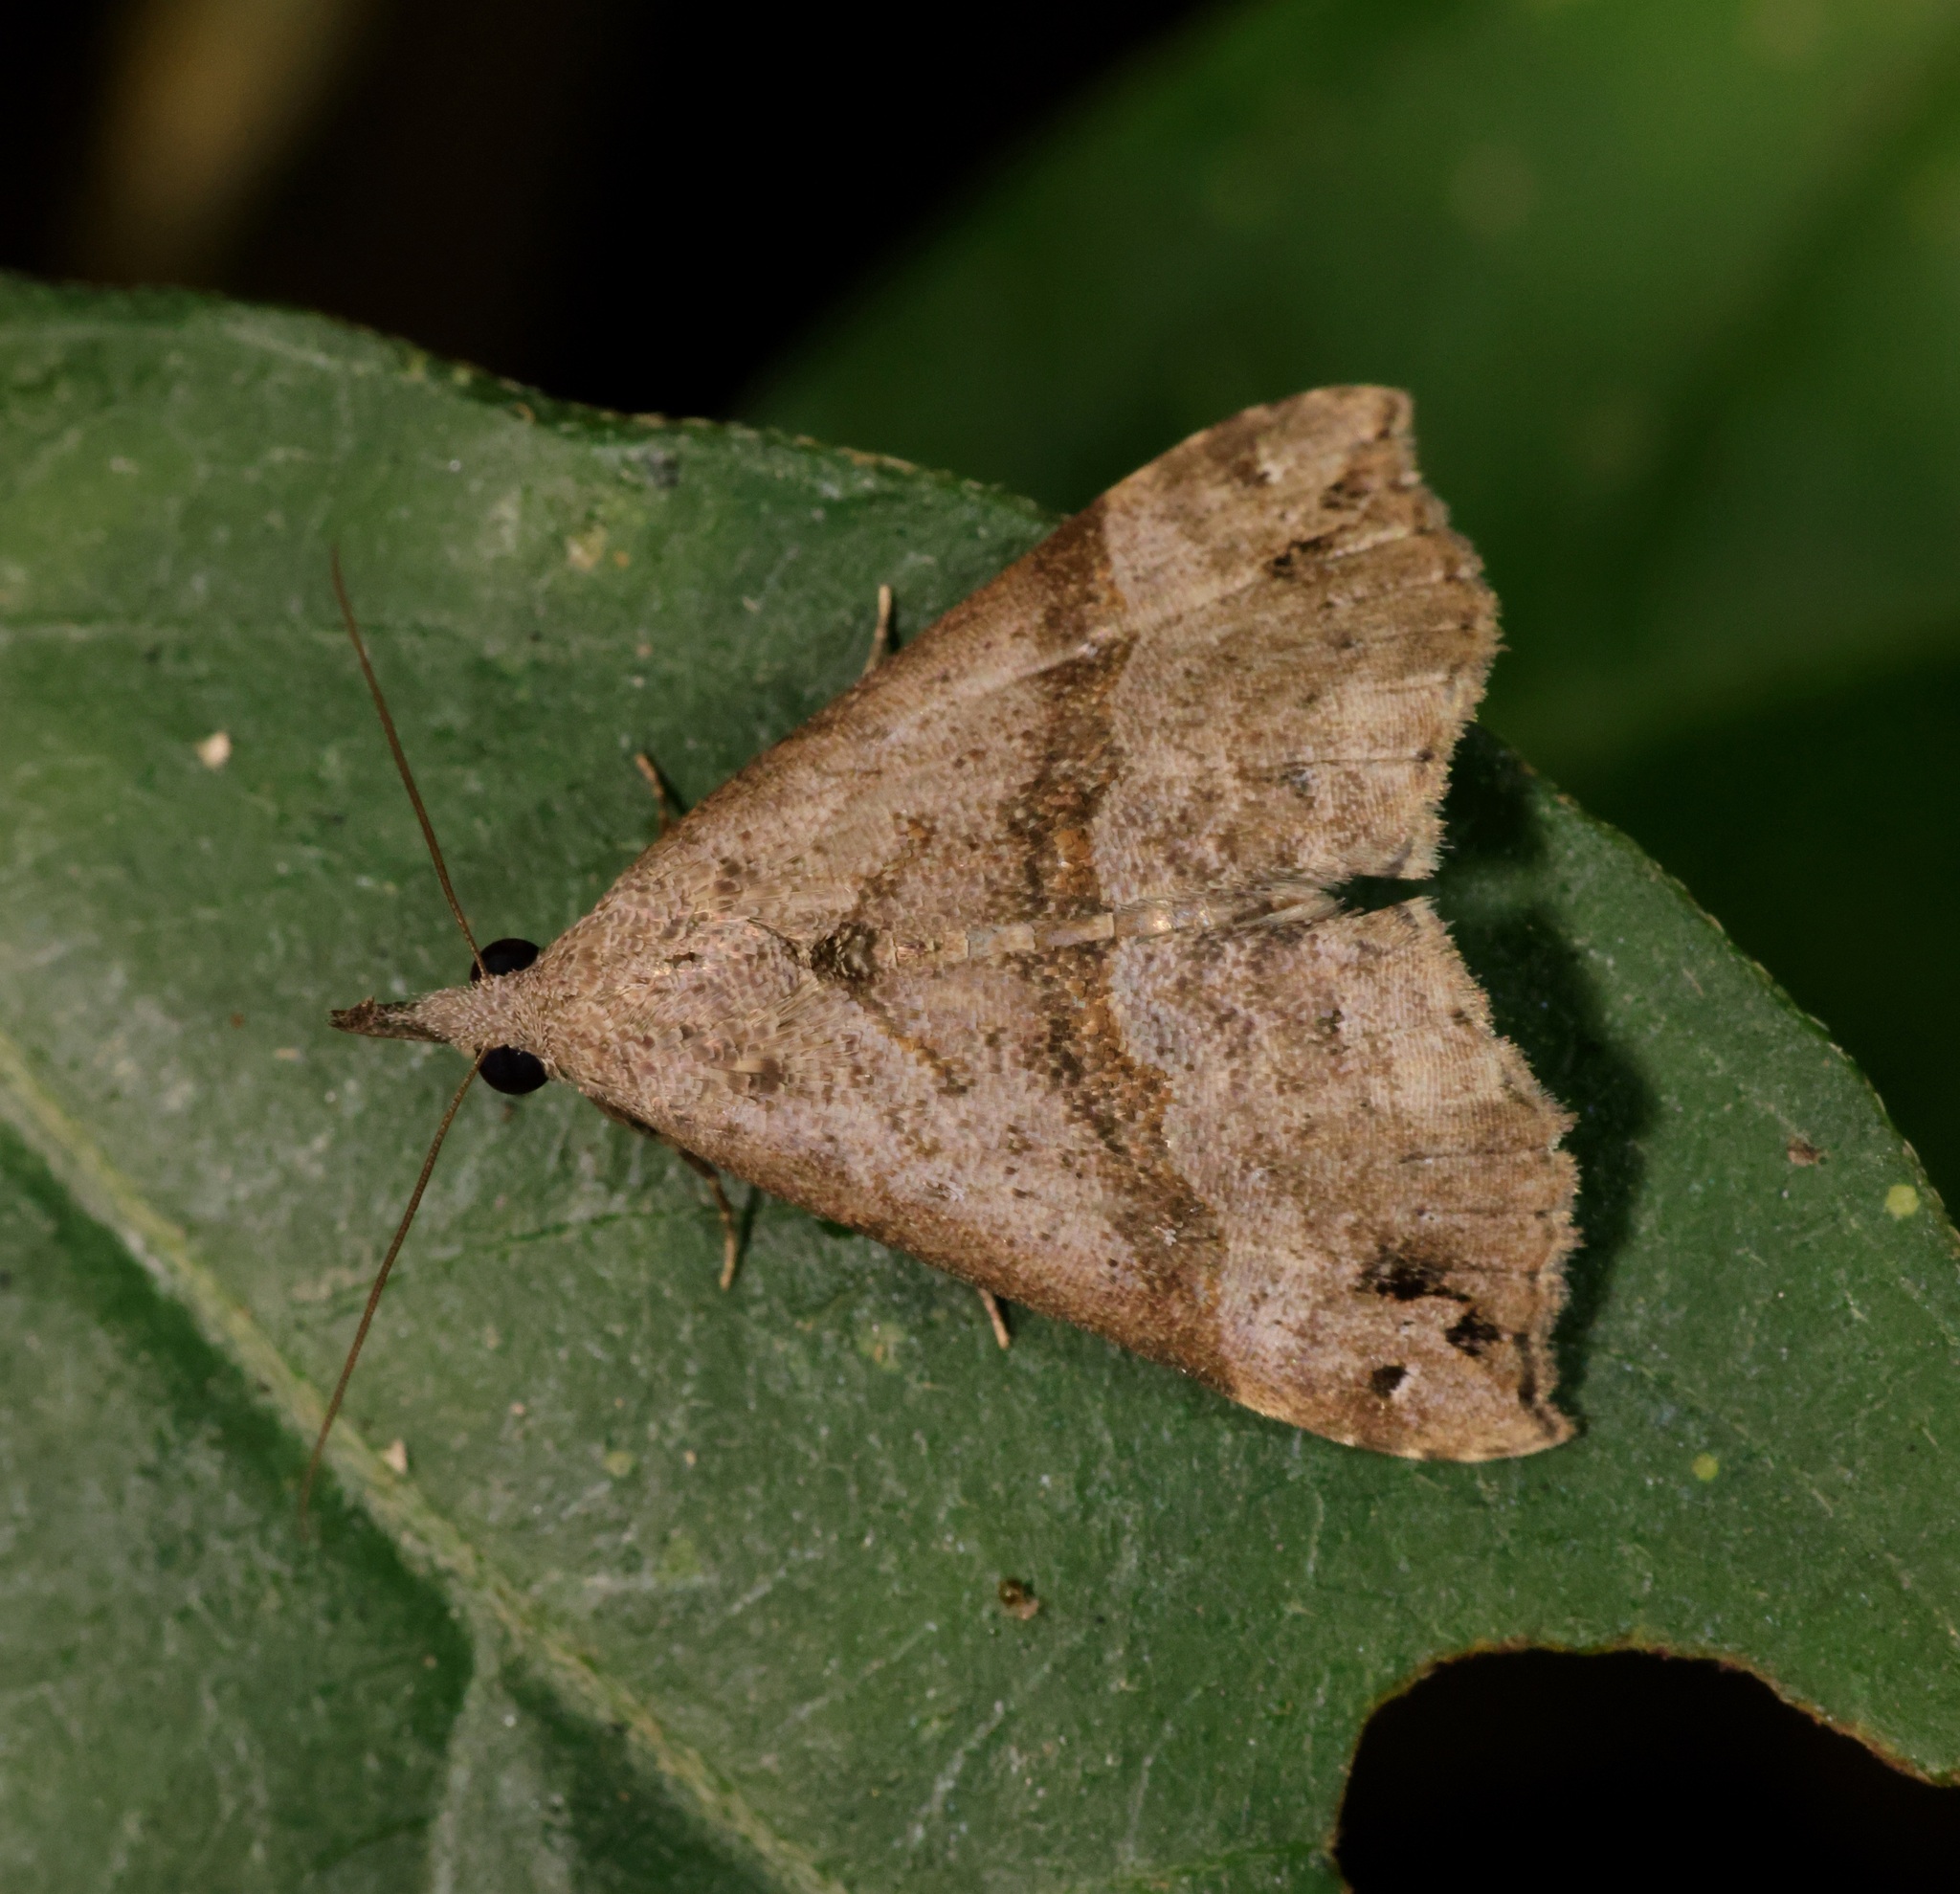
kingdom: Animalia
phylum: Arthropoda
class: Insecta
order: Lepidoptera
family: Erebidae
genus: Hypena
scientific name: Hypena
